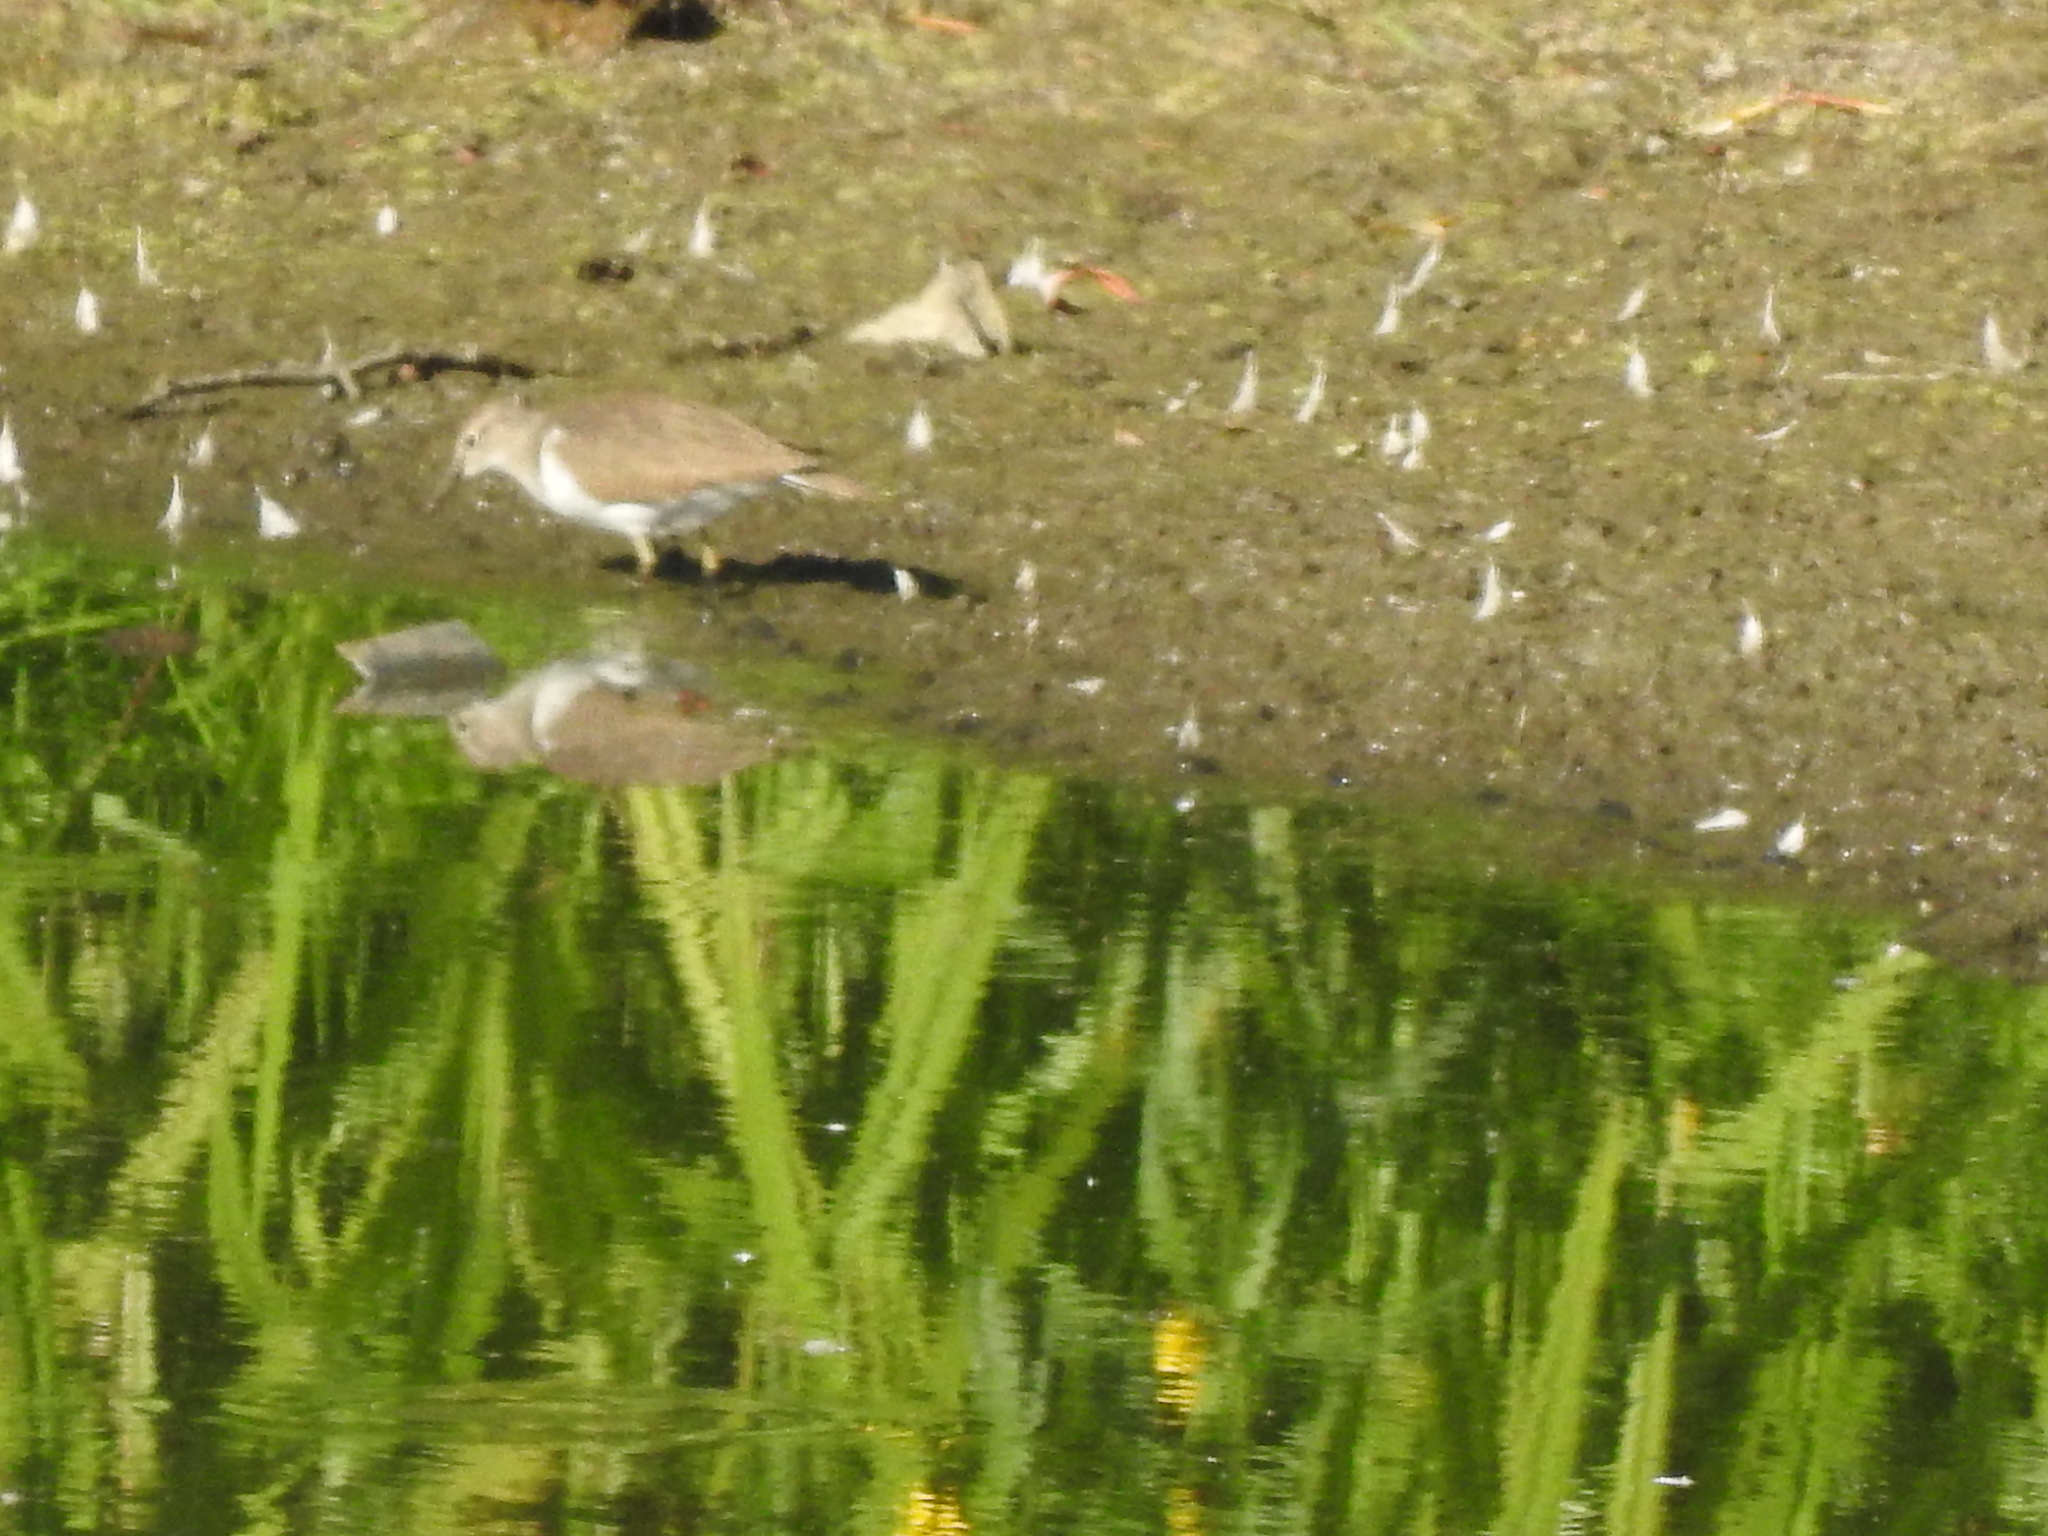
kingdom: Animalia
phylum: Chordata
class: Aves
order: Charadriiformes
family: Scolopacidae
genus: Actitis
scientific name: Actitis hypoleucos
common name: Common sandpiper
